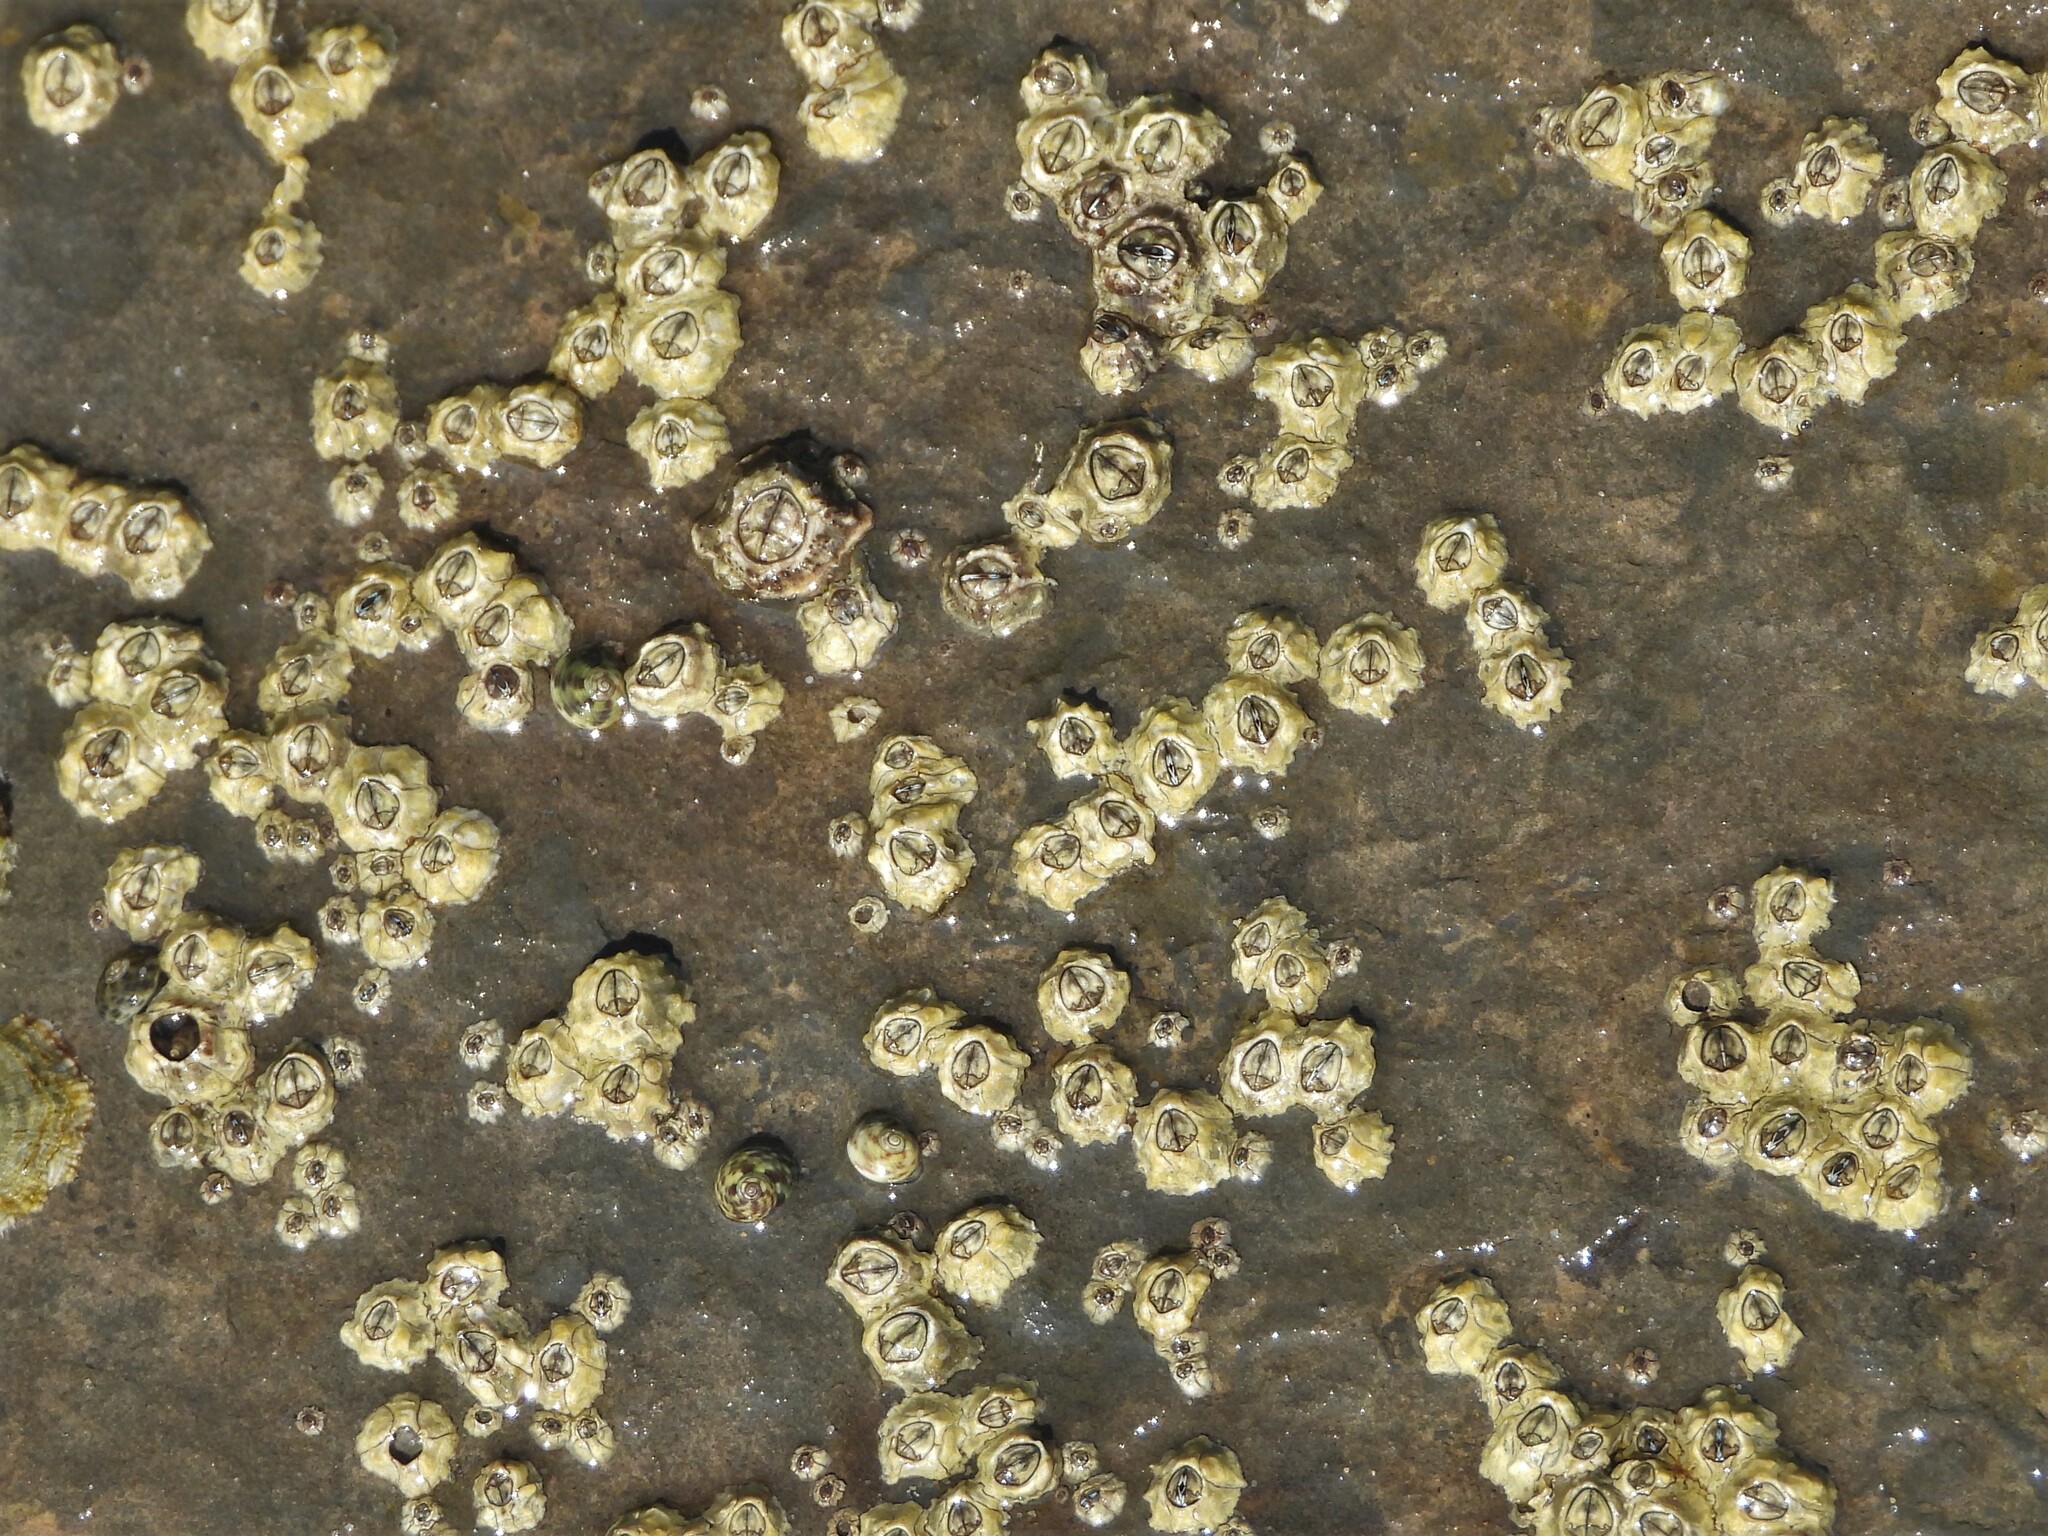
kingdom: Animalia
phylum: Arthropoda
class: Maxillopoda
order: Sessilia
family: Chthamalidae
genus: Chthamalus
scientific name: Chthamalus montagui
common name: Montagu's stellate barnacle
